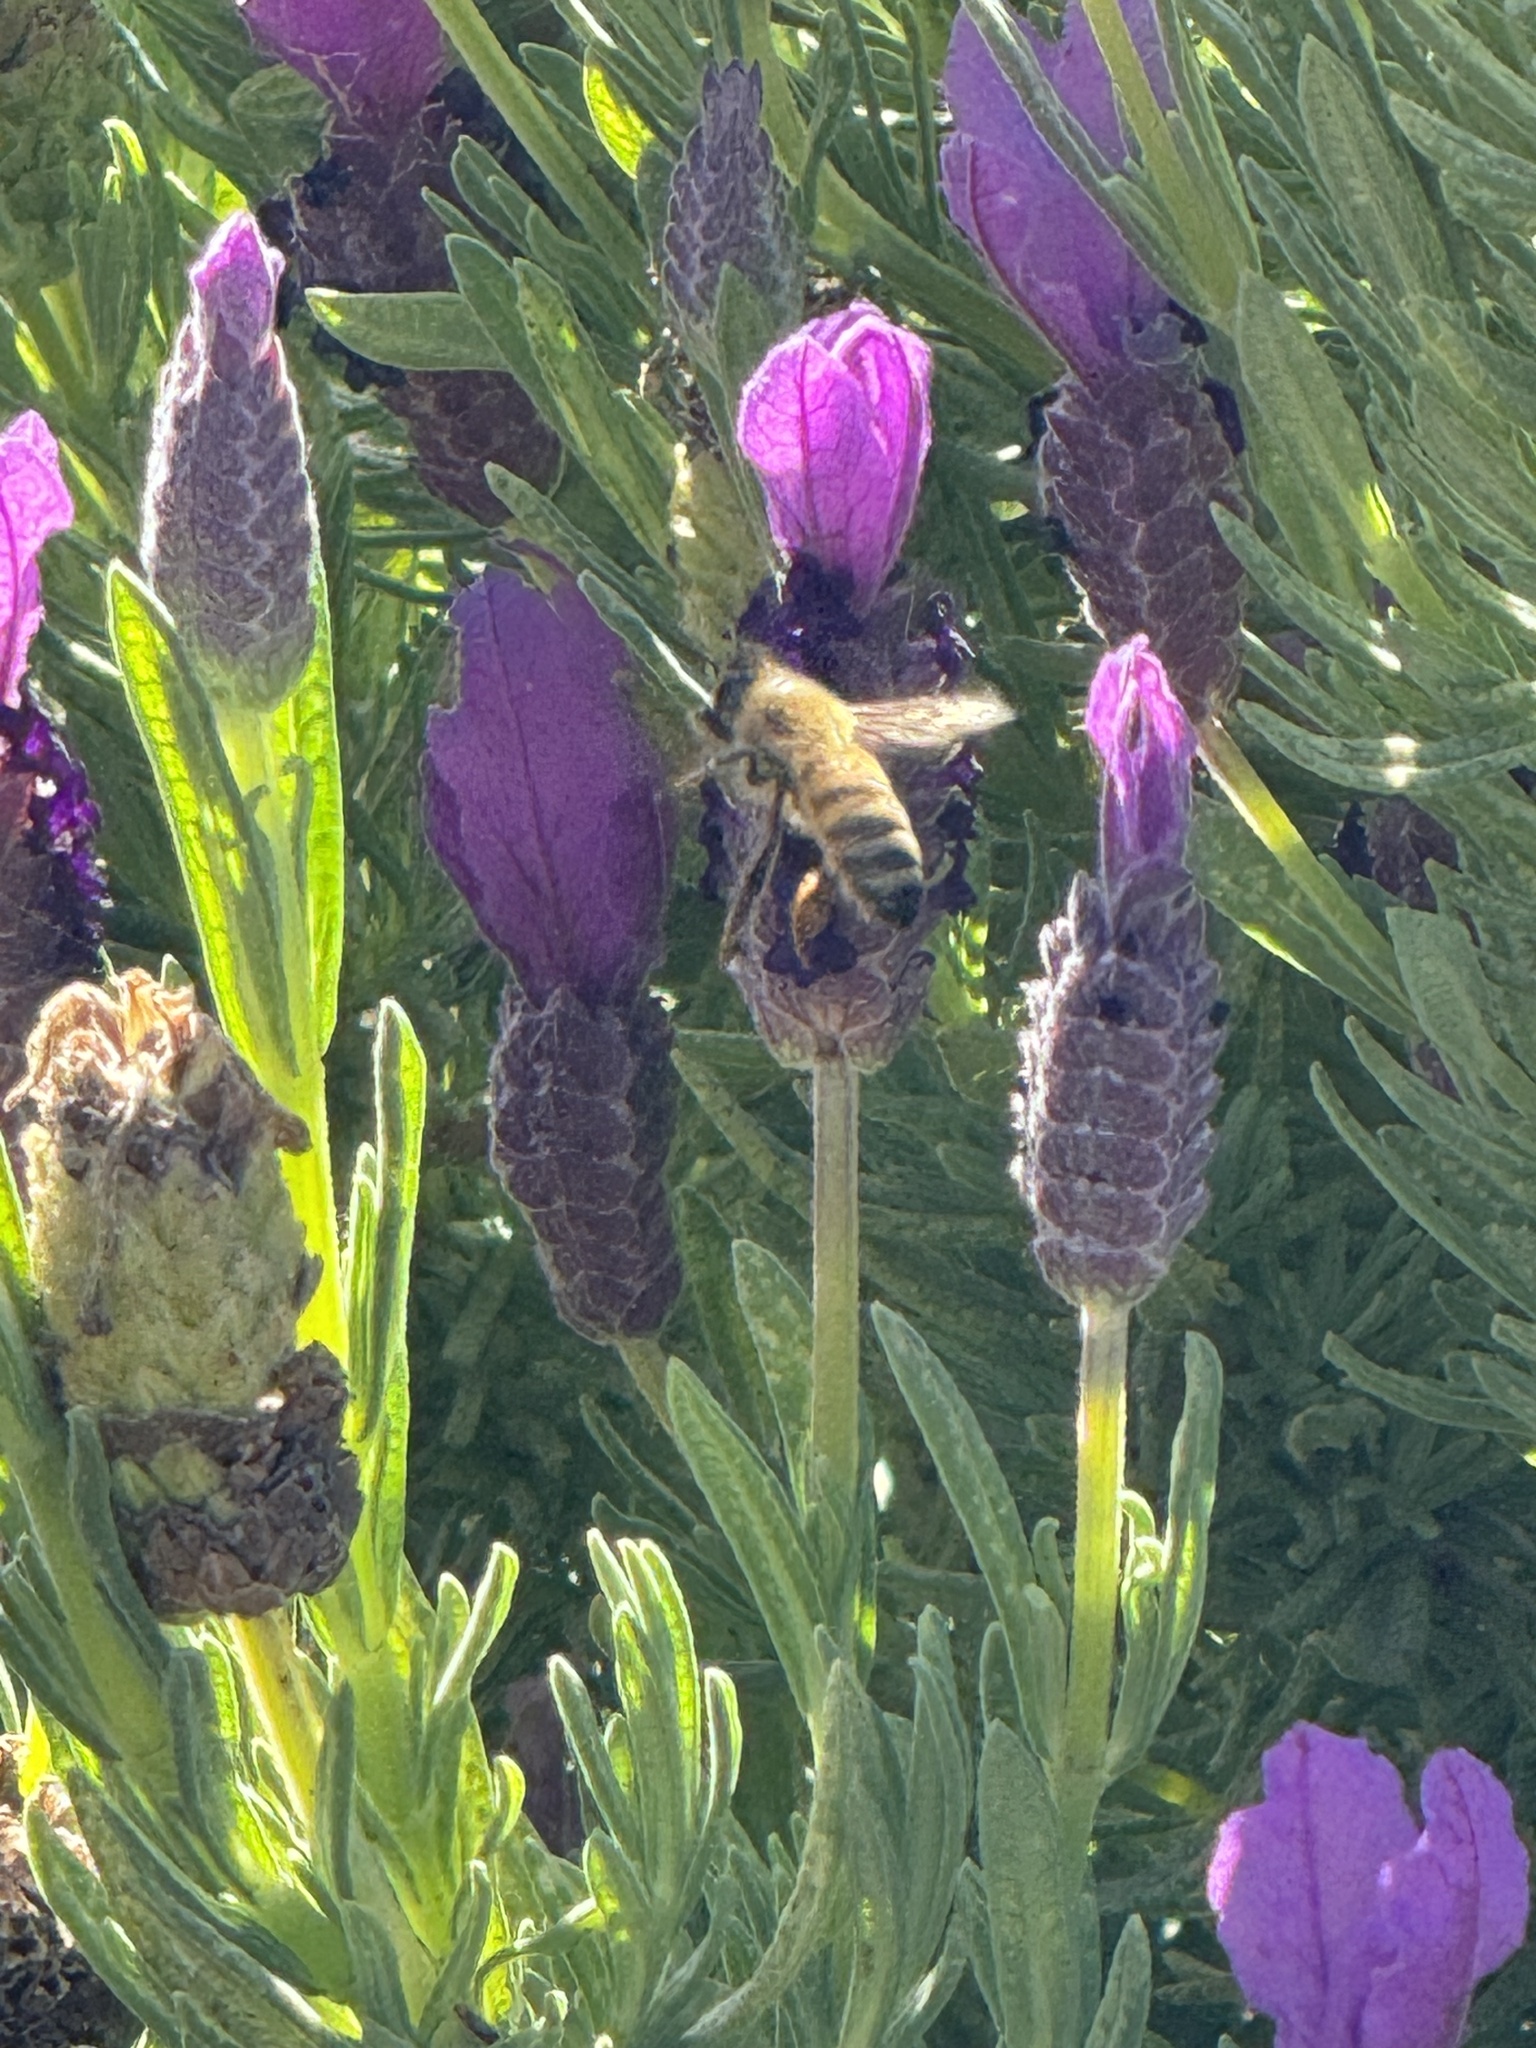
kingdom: Animalia
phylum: Arthropoda
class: Insecta
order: Hymenoptera
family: Apidae
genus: Apis
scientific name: Apis mellifera
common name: Honey bee
